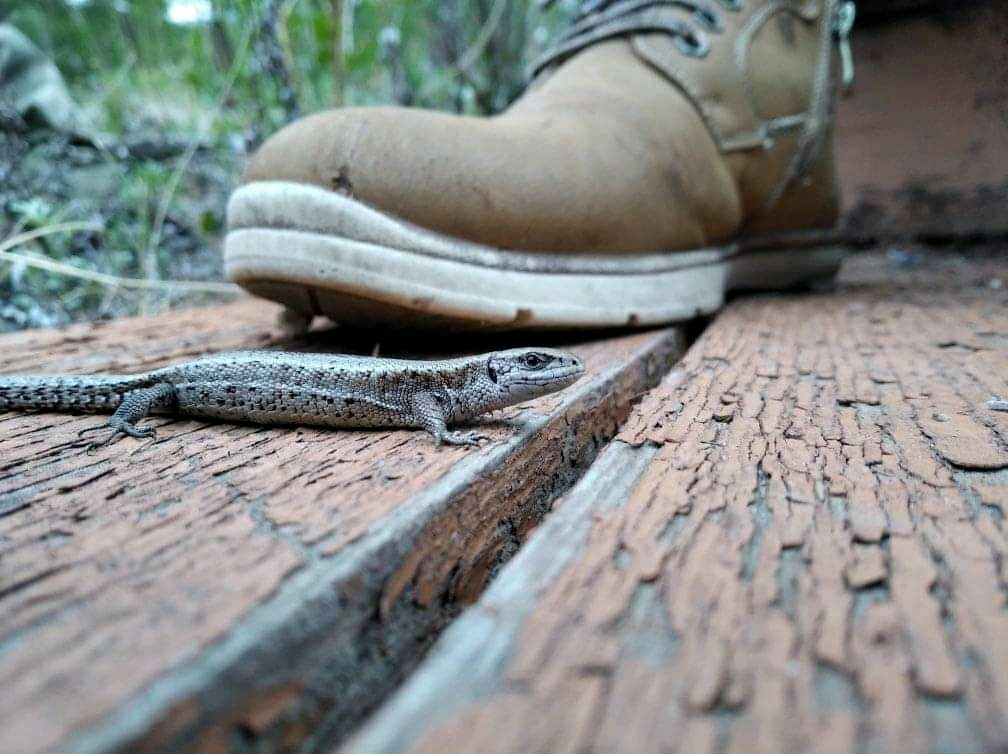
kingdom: Animalia
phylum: Chordata
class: Squamata
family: Lacertidae
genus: Zootoca
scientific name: Zootoca vivipara
